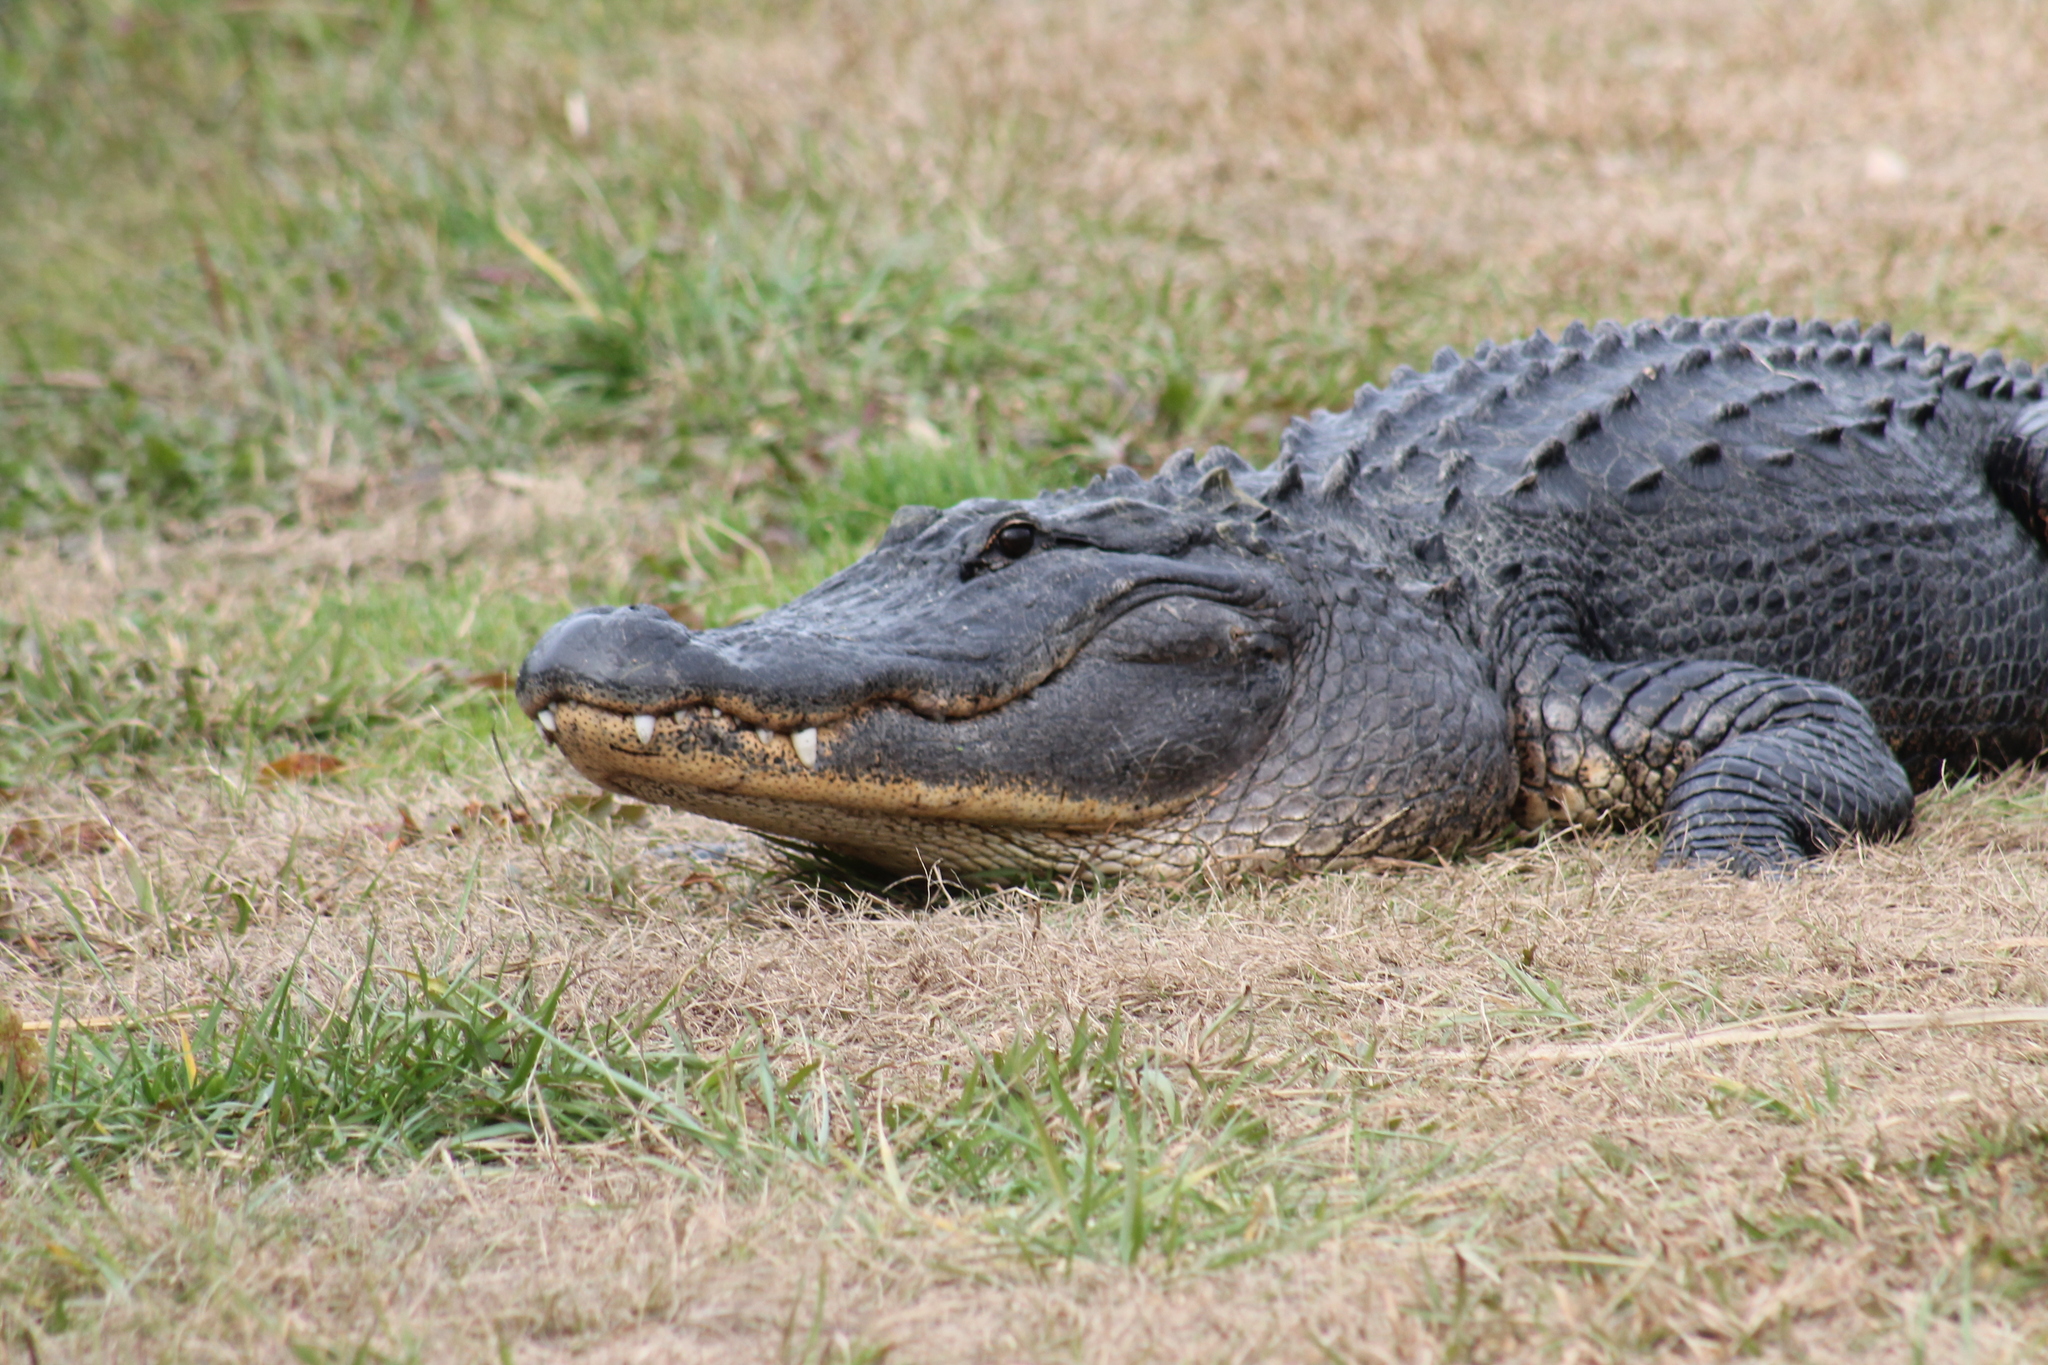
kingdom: Animalia
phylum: Chordata
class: Crocodylia
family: Alligatoridae
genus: Alligator
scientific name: Alligator mississippiensis
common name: American alligator
